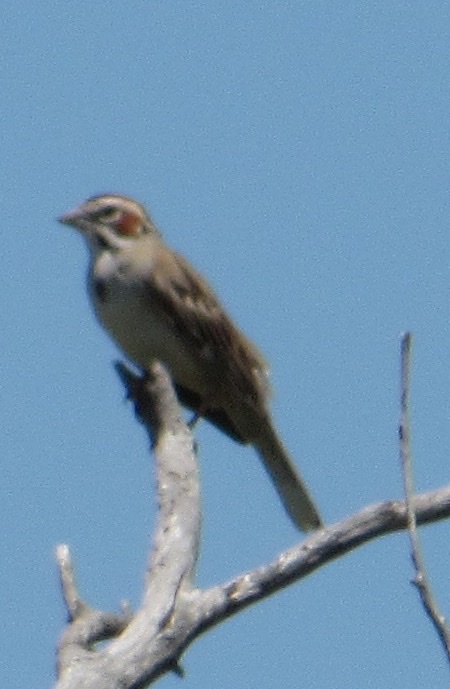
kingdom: Animalia
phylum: Chordata
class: Aves
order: Passeriformes
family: Passerellidae
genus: Chondestes
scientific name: Chondestes grammacus
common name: Lark sparrow
